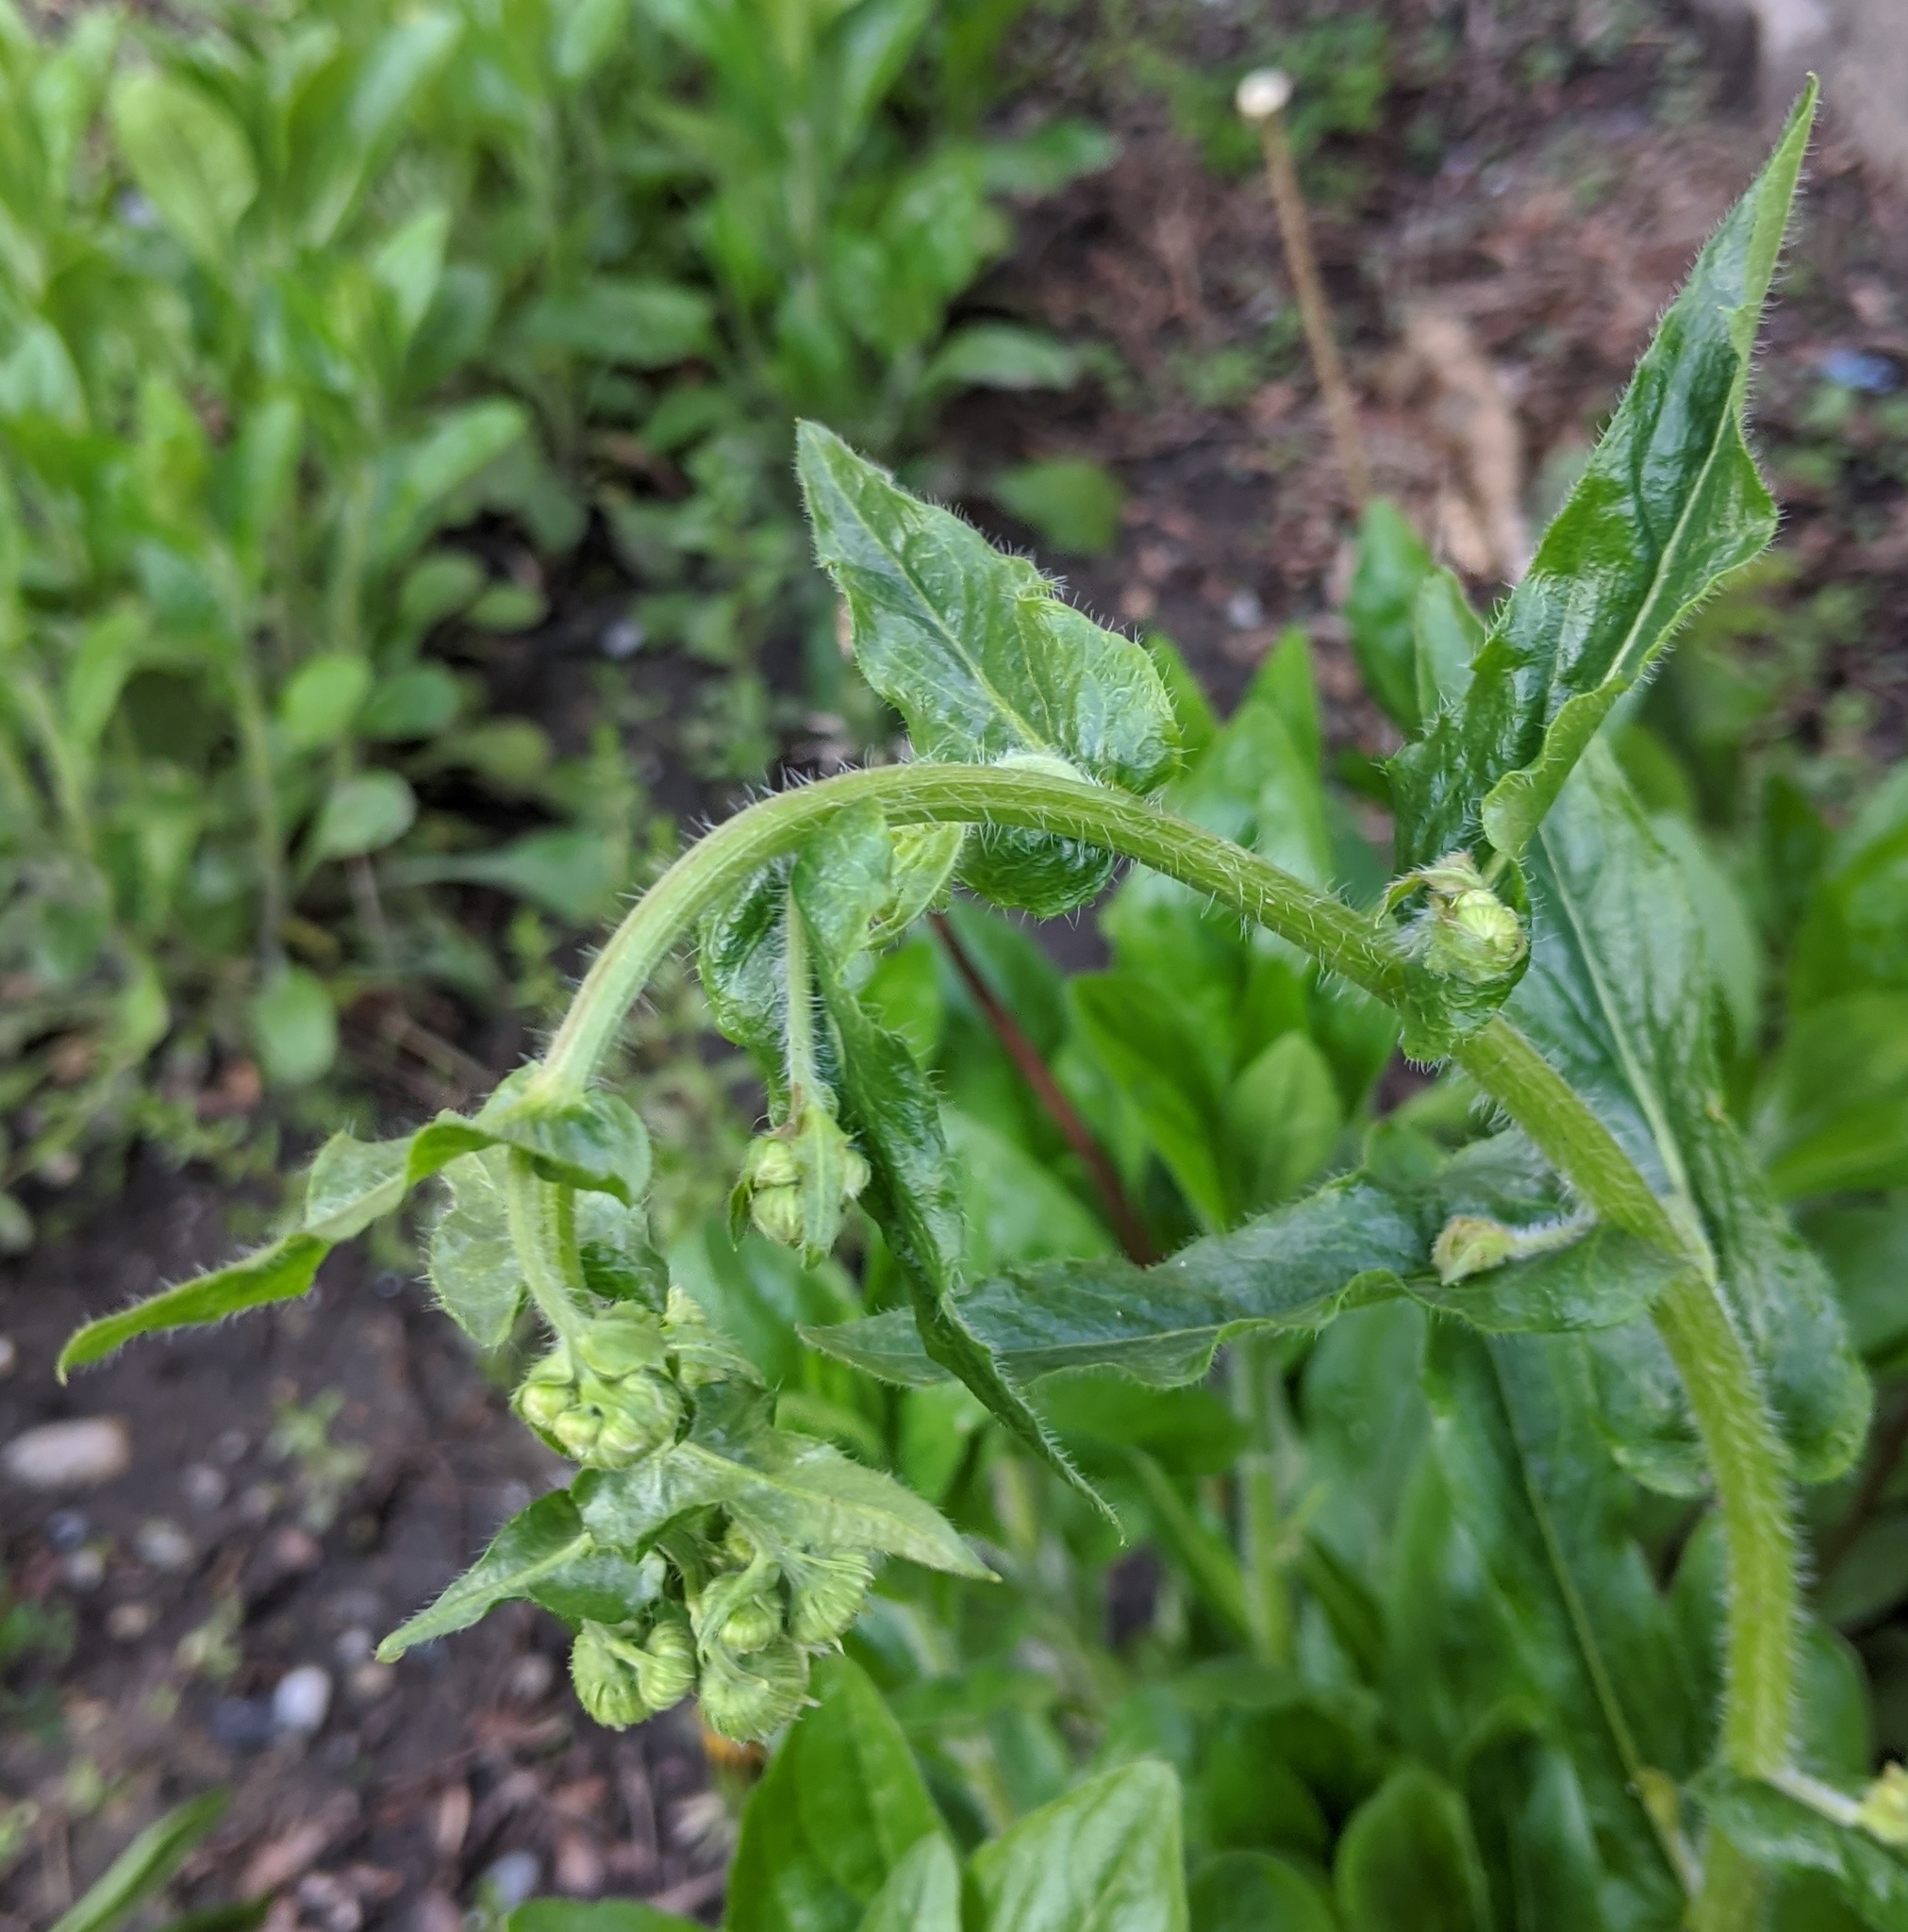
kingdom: Plantae
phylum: Tracheophyta
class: Magnoliopsida
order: Asterales
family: Asteraceae
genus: Erigeron
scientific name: Erigeron philadelphicus
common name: Robin's-plantain
